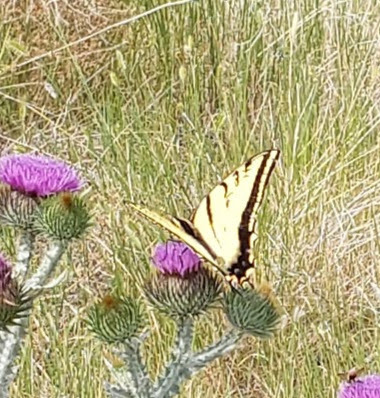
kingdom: Animalia
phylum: Arthropoda
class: Insecta
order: Lepidoptera
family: Papilionidae
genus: Papilio
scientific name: Papilio multicaudata
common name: Two-tailed tiger swallowtail
